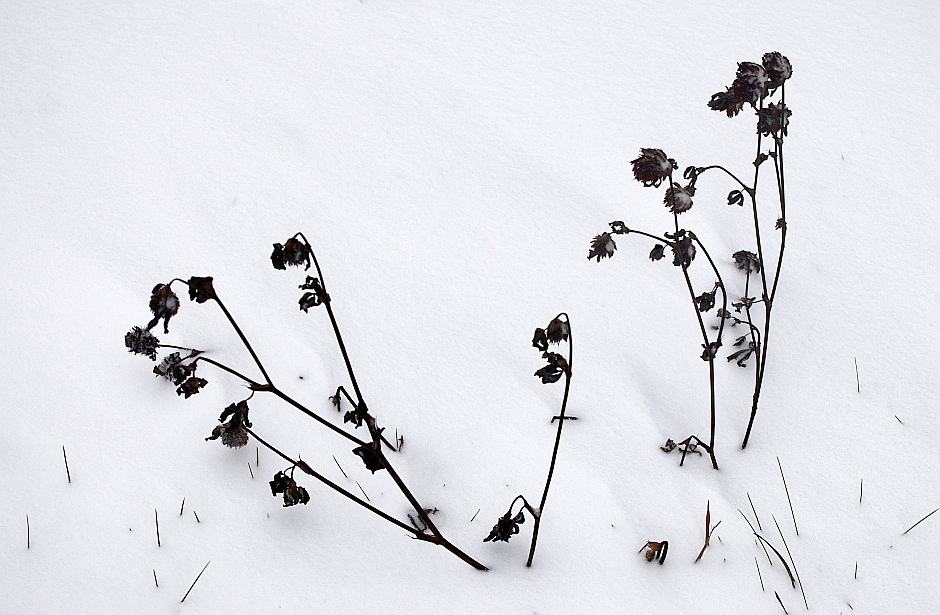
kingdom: Plantae
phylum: Tracheophyta
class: Magnoliopsida
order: Fabales
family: Fabaceae
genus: Trifolium
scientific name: Trifolium pratense
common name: Red clover
